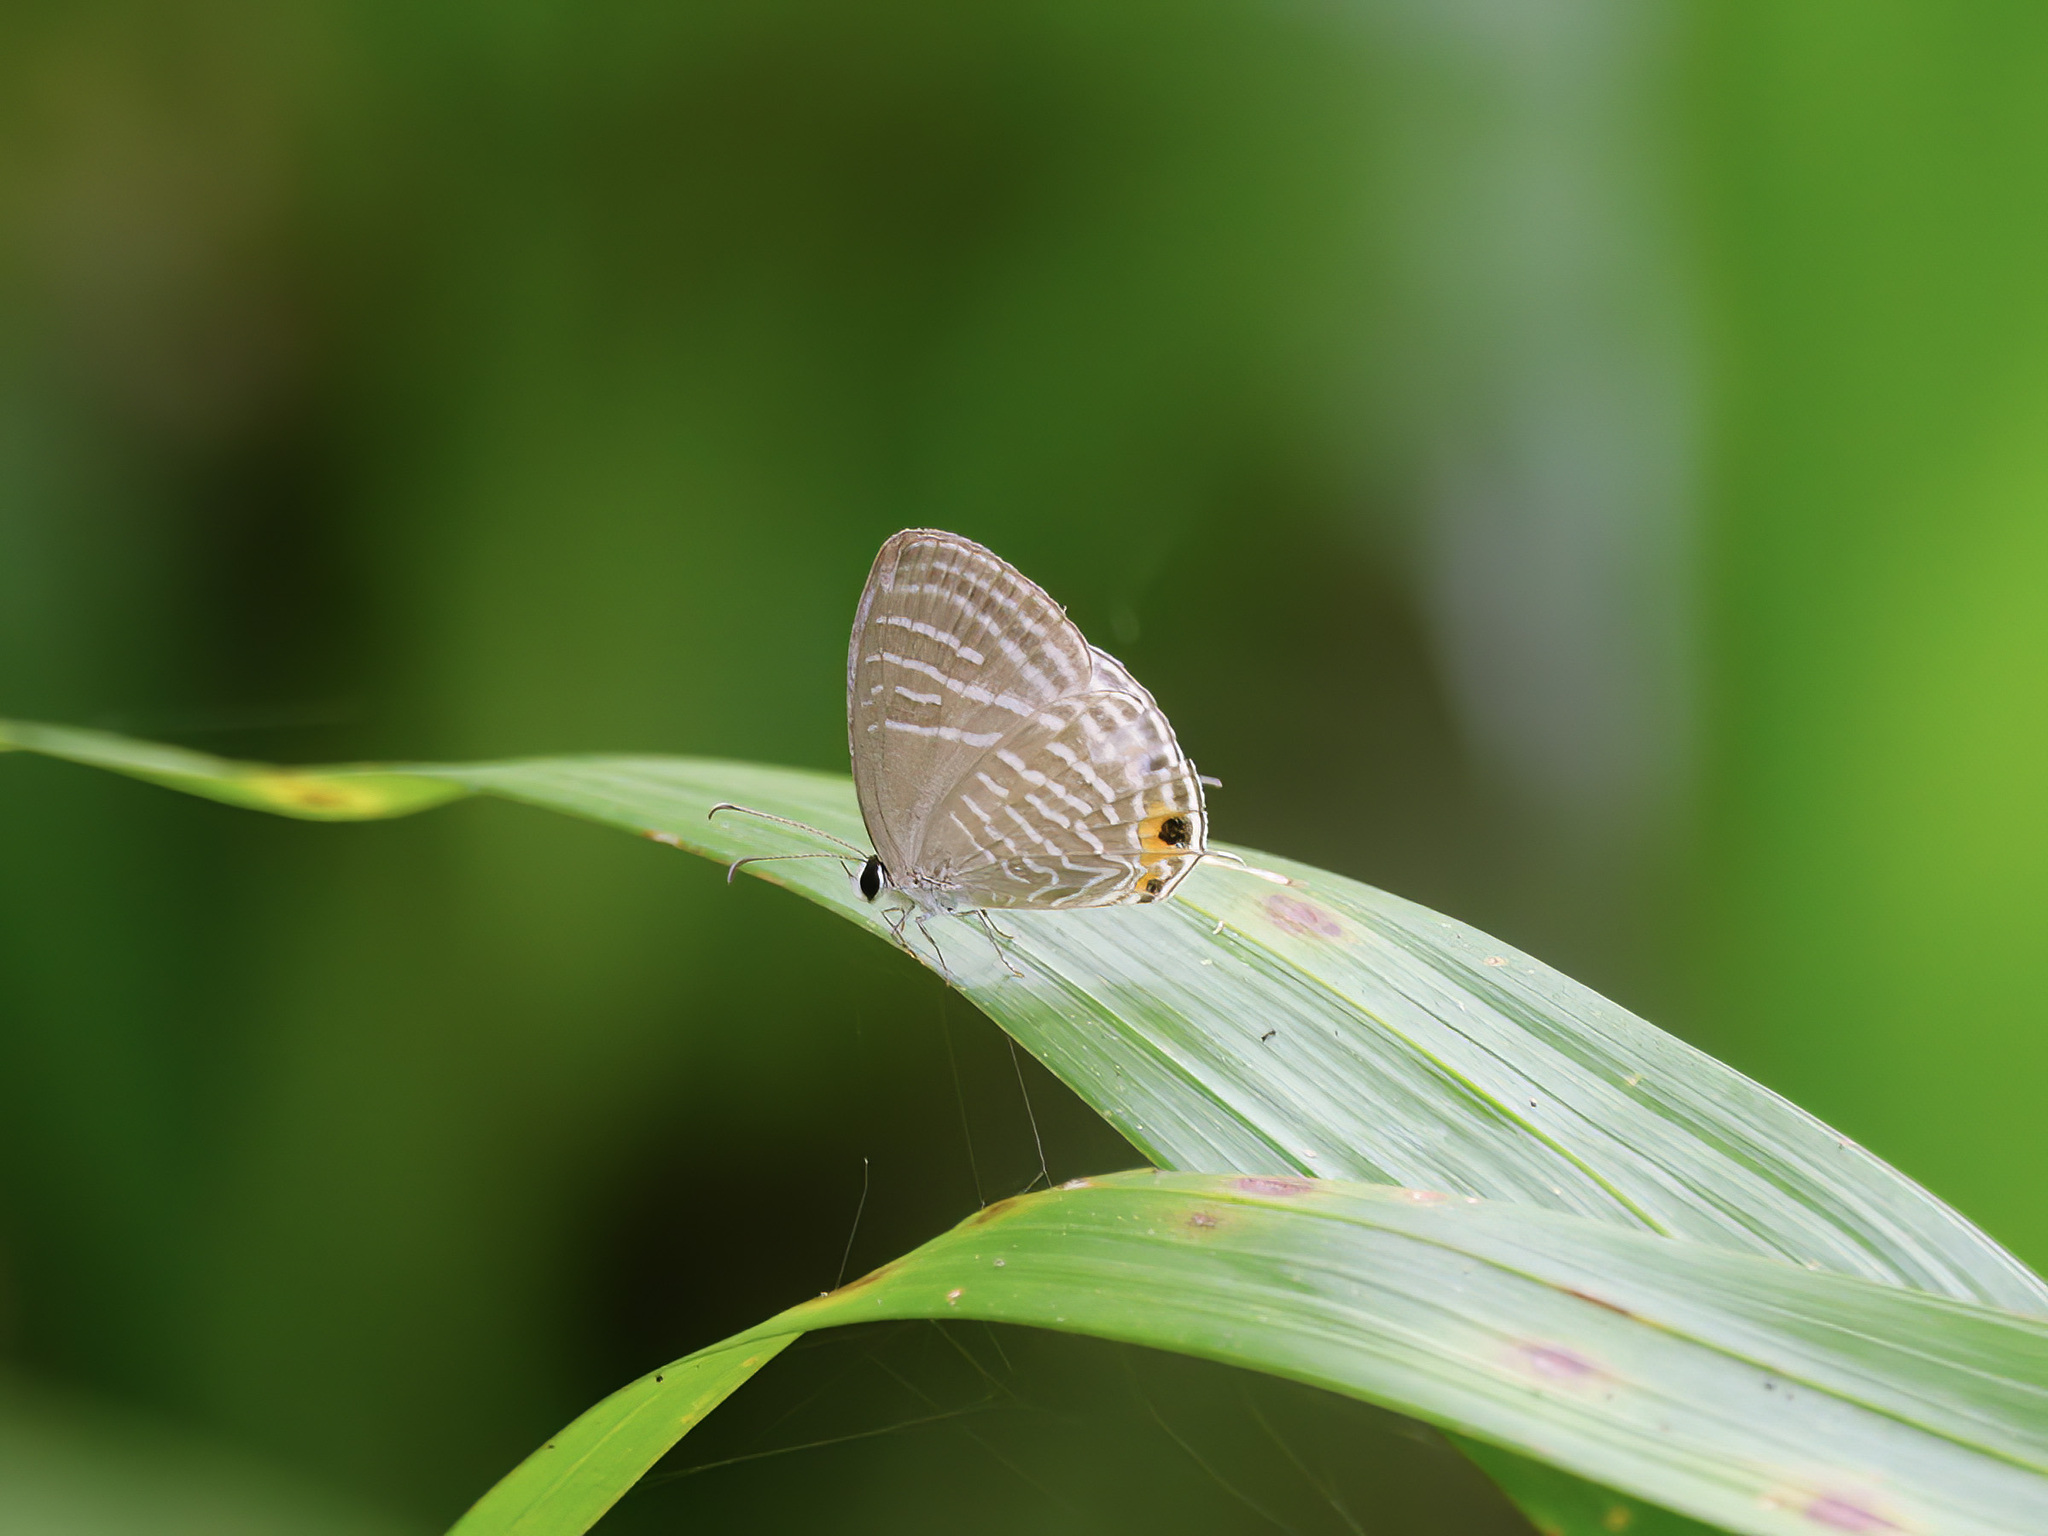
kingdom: Animalia
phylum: Arthropoda
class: Insecta
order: Lepidoptera
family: Lycaenidae
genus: Jamides
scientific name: Jamides celeno
